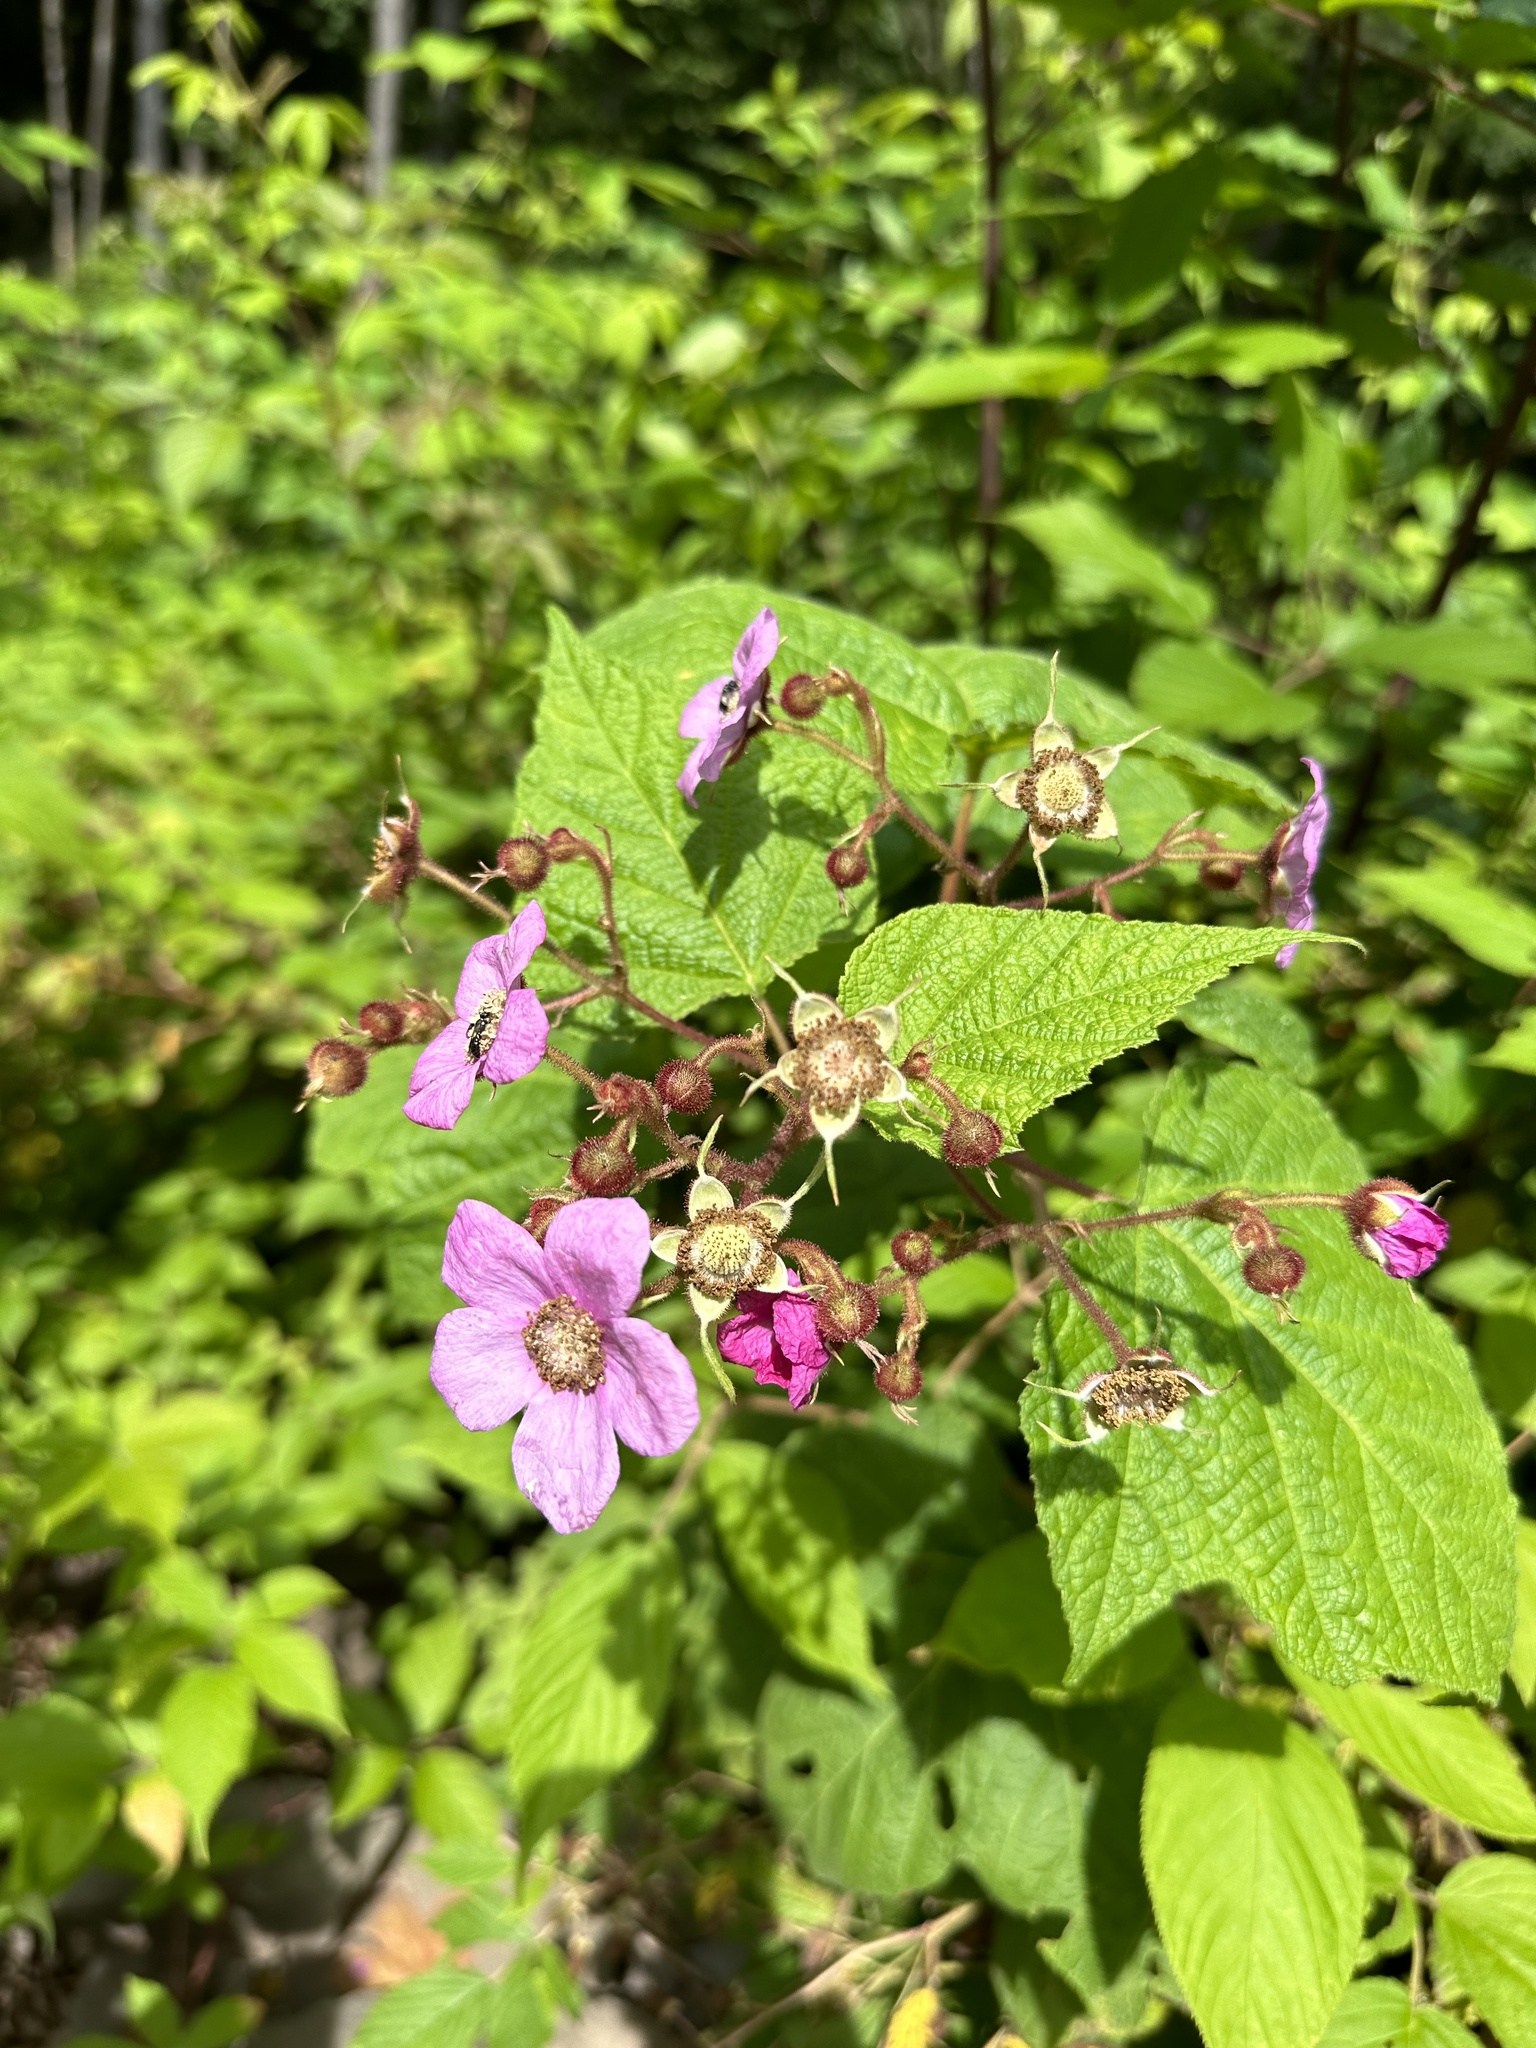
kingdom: Plantae
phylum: Tracheophyta
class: Magnoliopsida
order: Rosales
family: Rosaceae
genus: Rubus
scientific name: Rubus odoratus
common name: Purple-flowered raspberry
